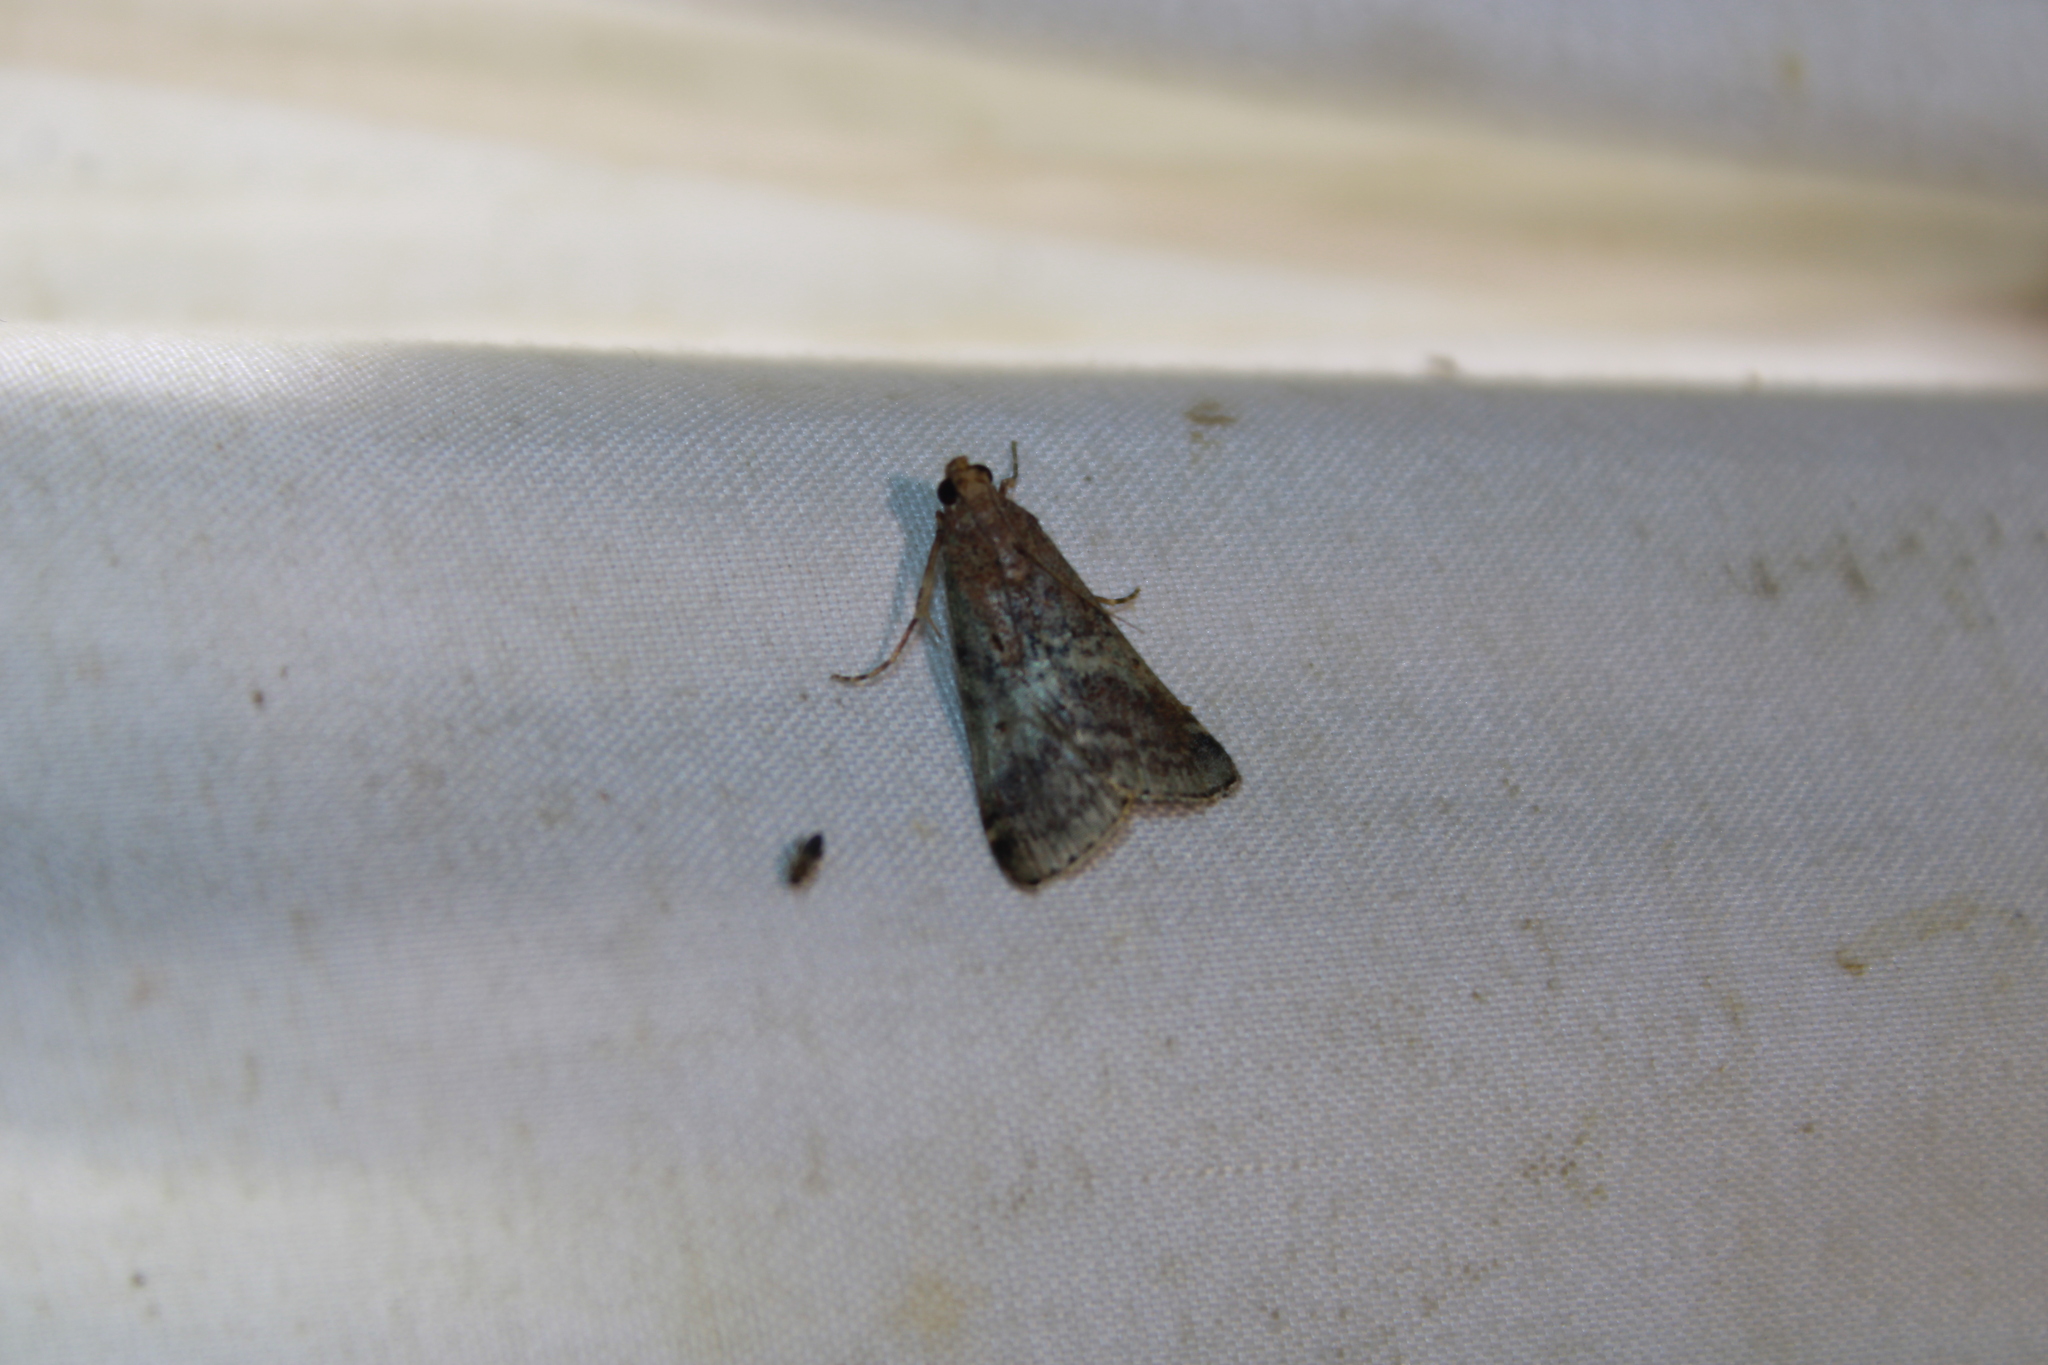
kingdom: Animalia
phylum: Arthropoda
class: Insecta
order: Lepidoptera
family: Pyralidae
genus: Deuterollyta
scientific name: Deuterollyta majuscula
